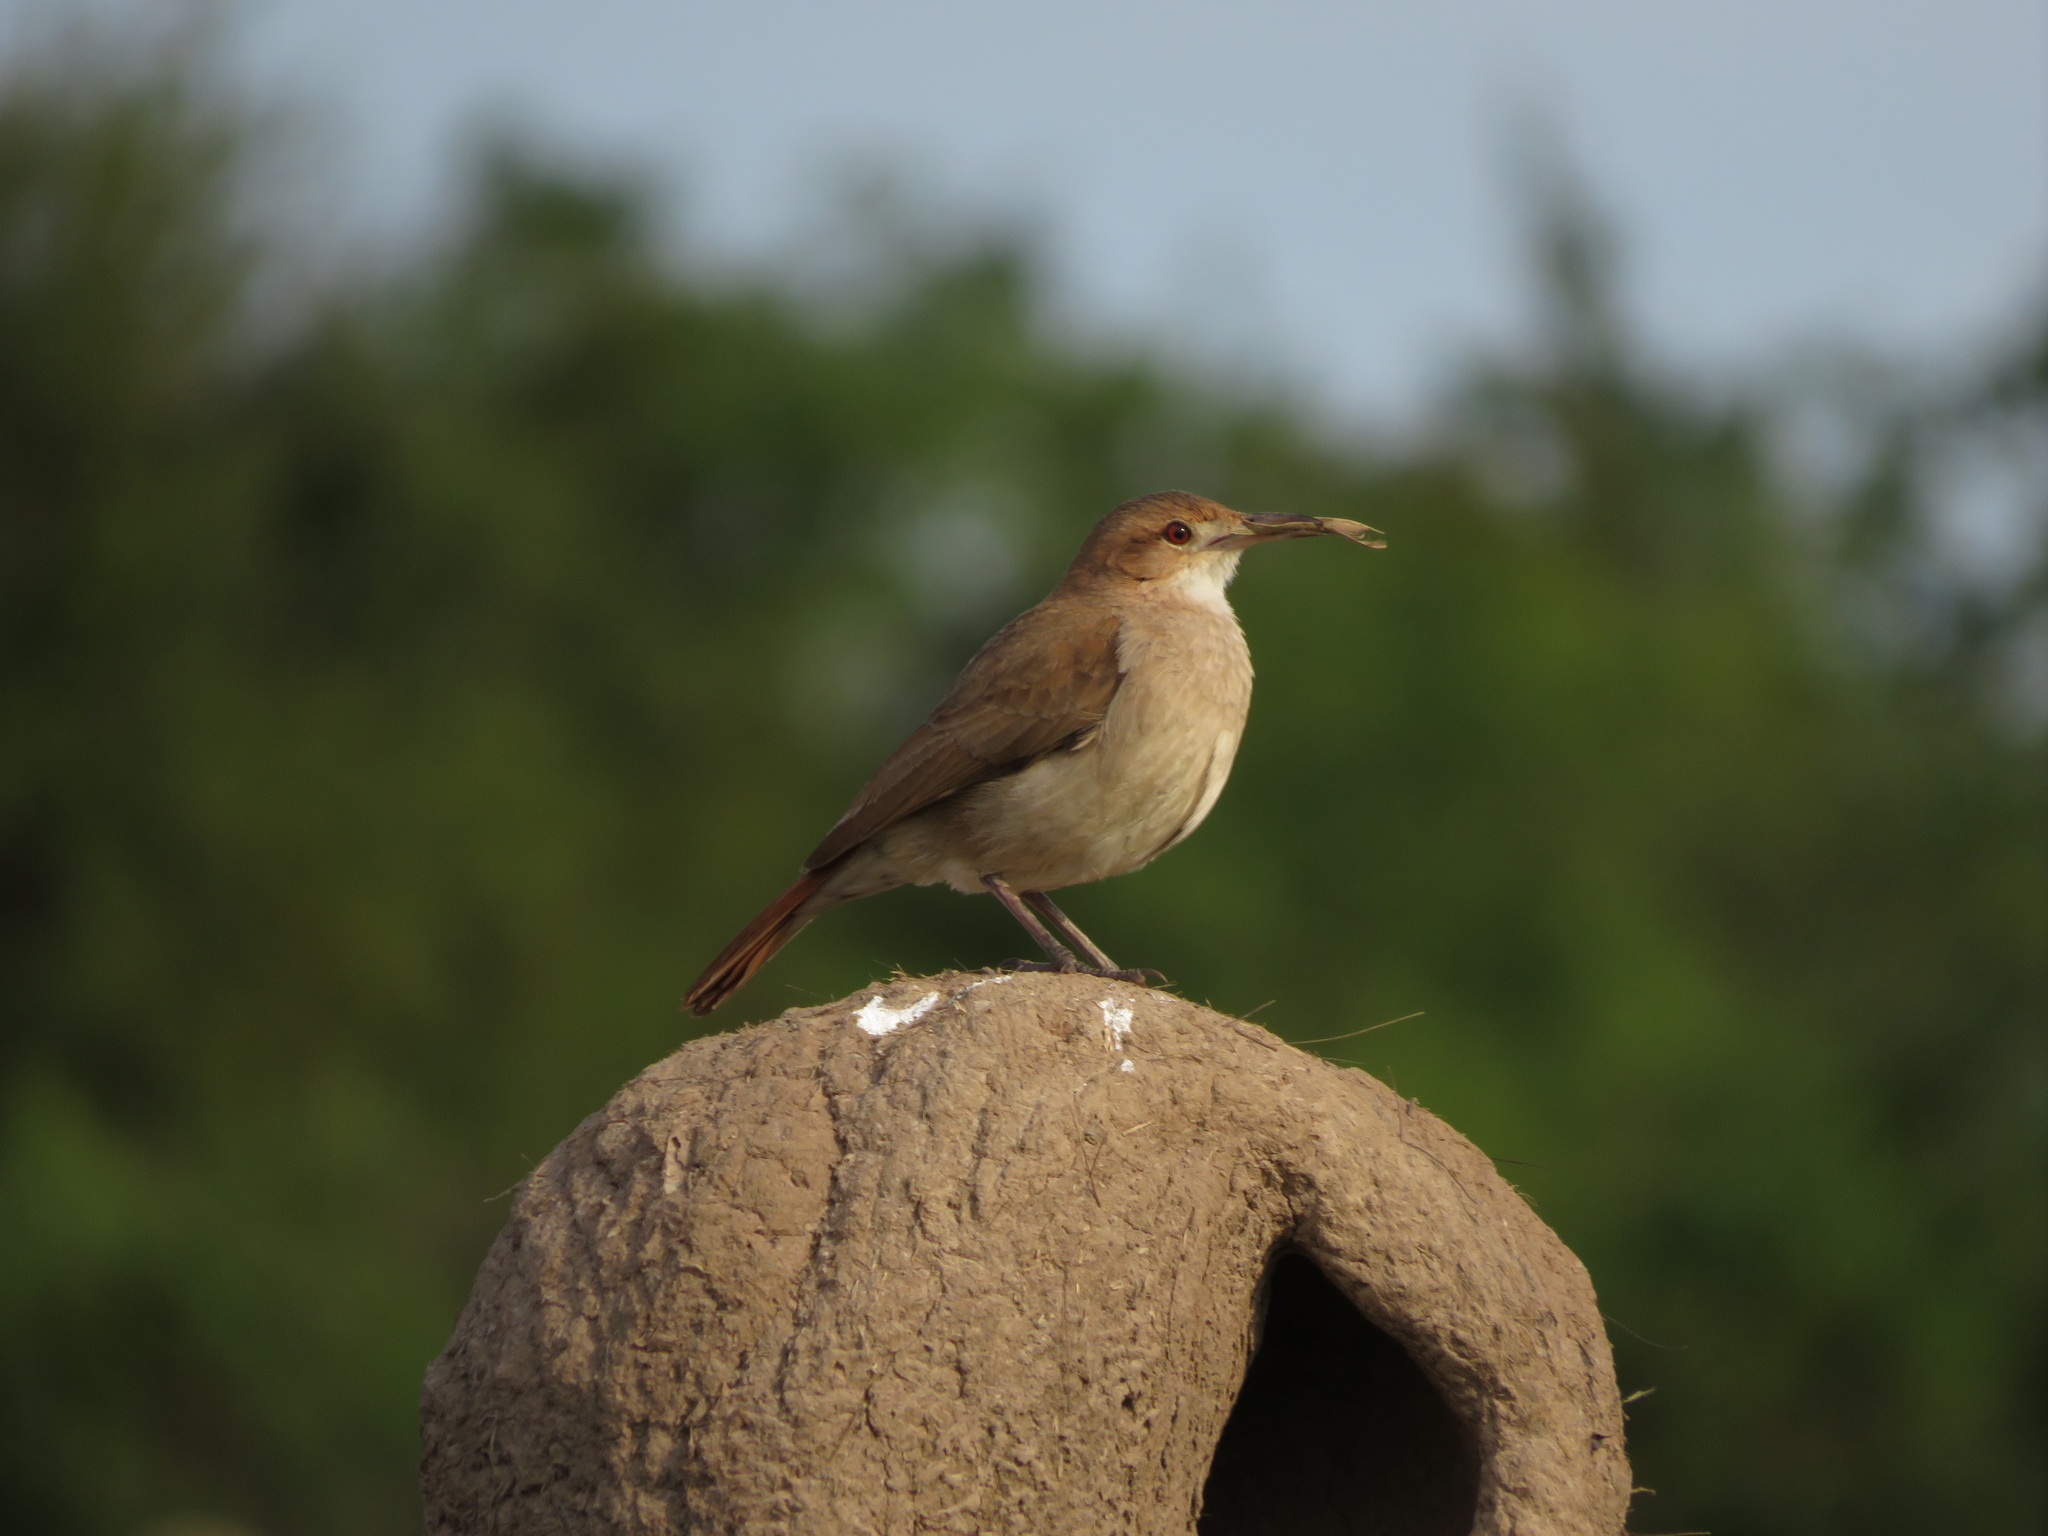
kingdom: Animalia
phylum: Chordata
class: Aves
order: Passeriformes
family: Furnariidae
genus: Furnarius
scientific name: Furnarius rufus
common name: Rufous hornero
